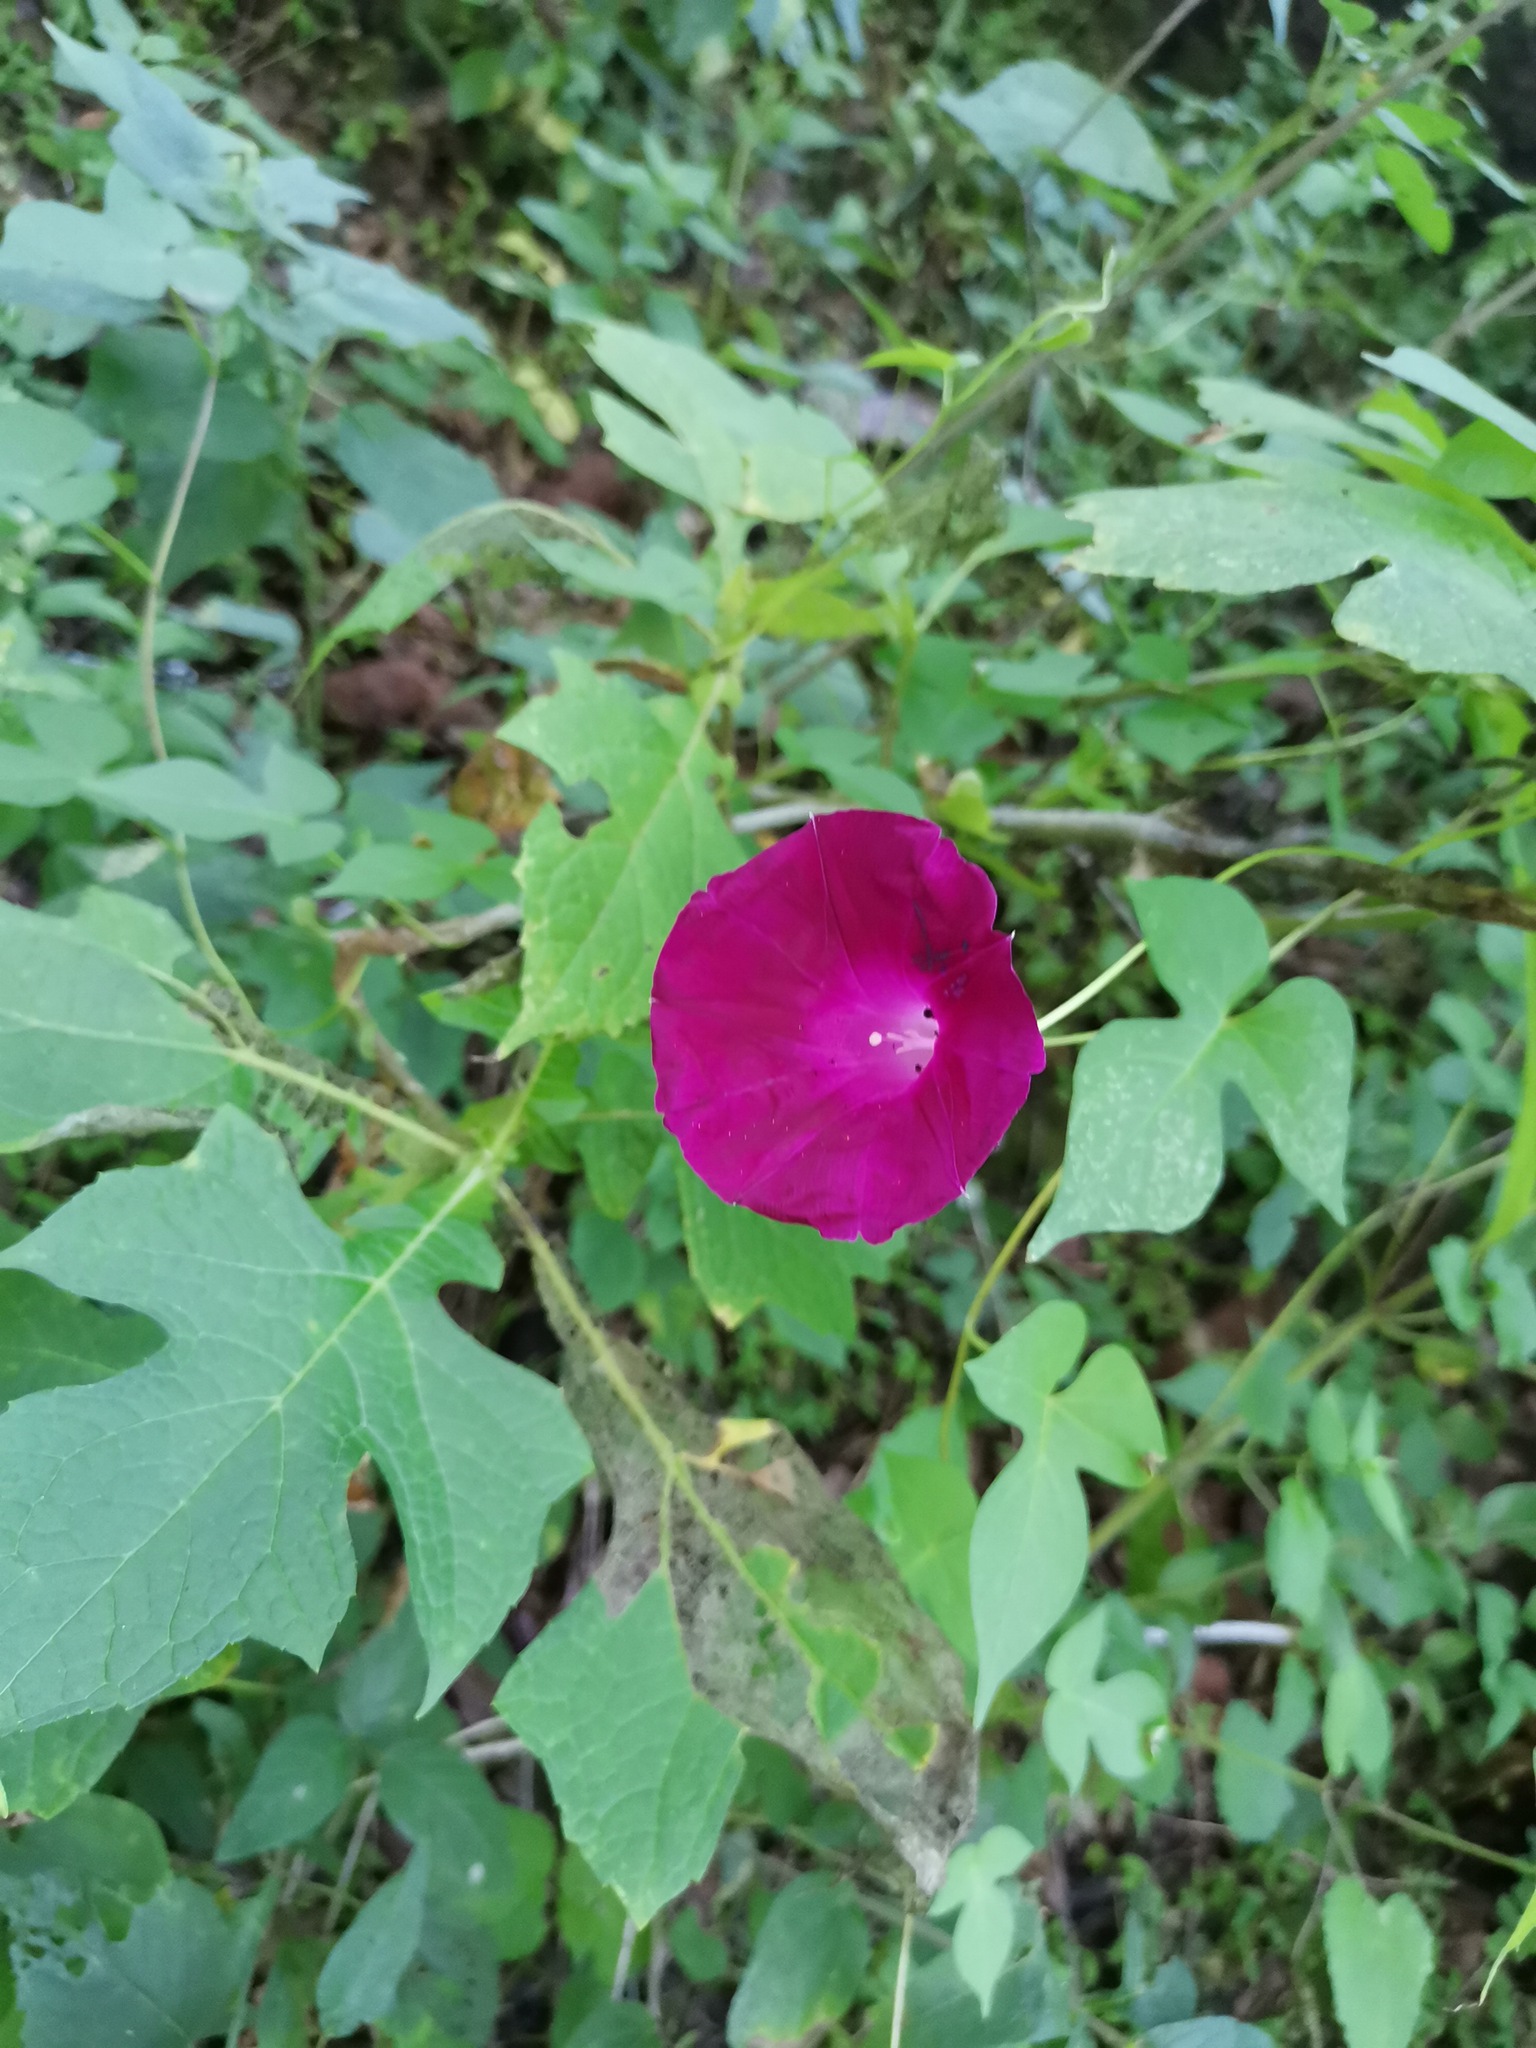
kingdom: Plantae
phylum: Tracheophyta
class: Magnoliopsida
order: Solanales
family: Convolvulaceae
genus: Ipomoea
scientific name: Ipomoea orizabensis
